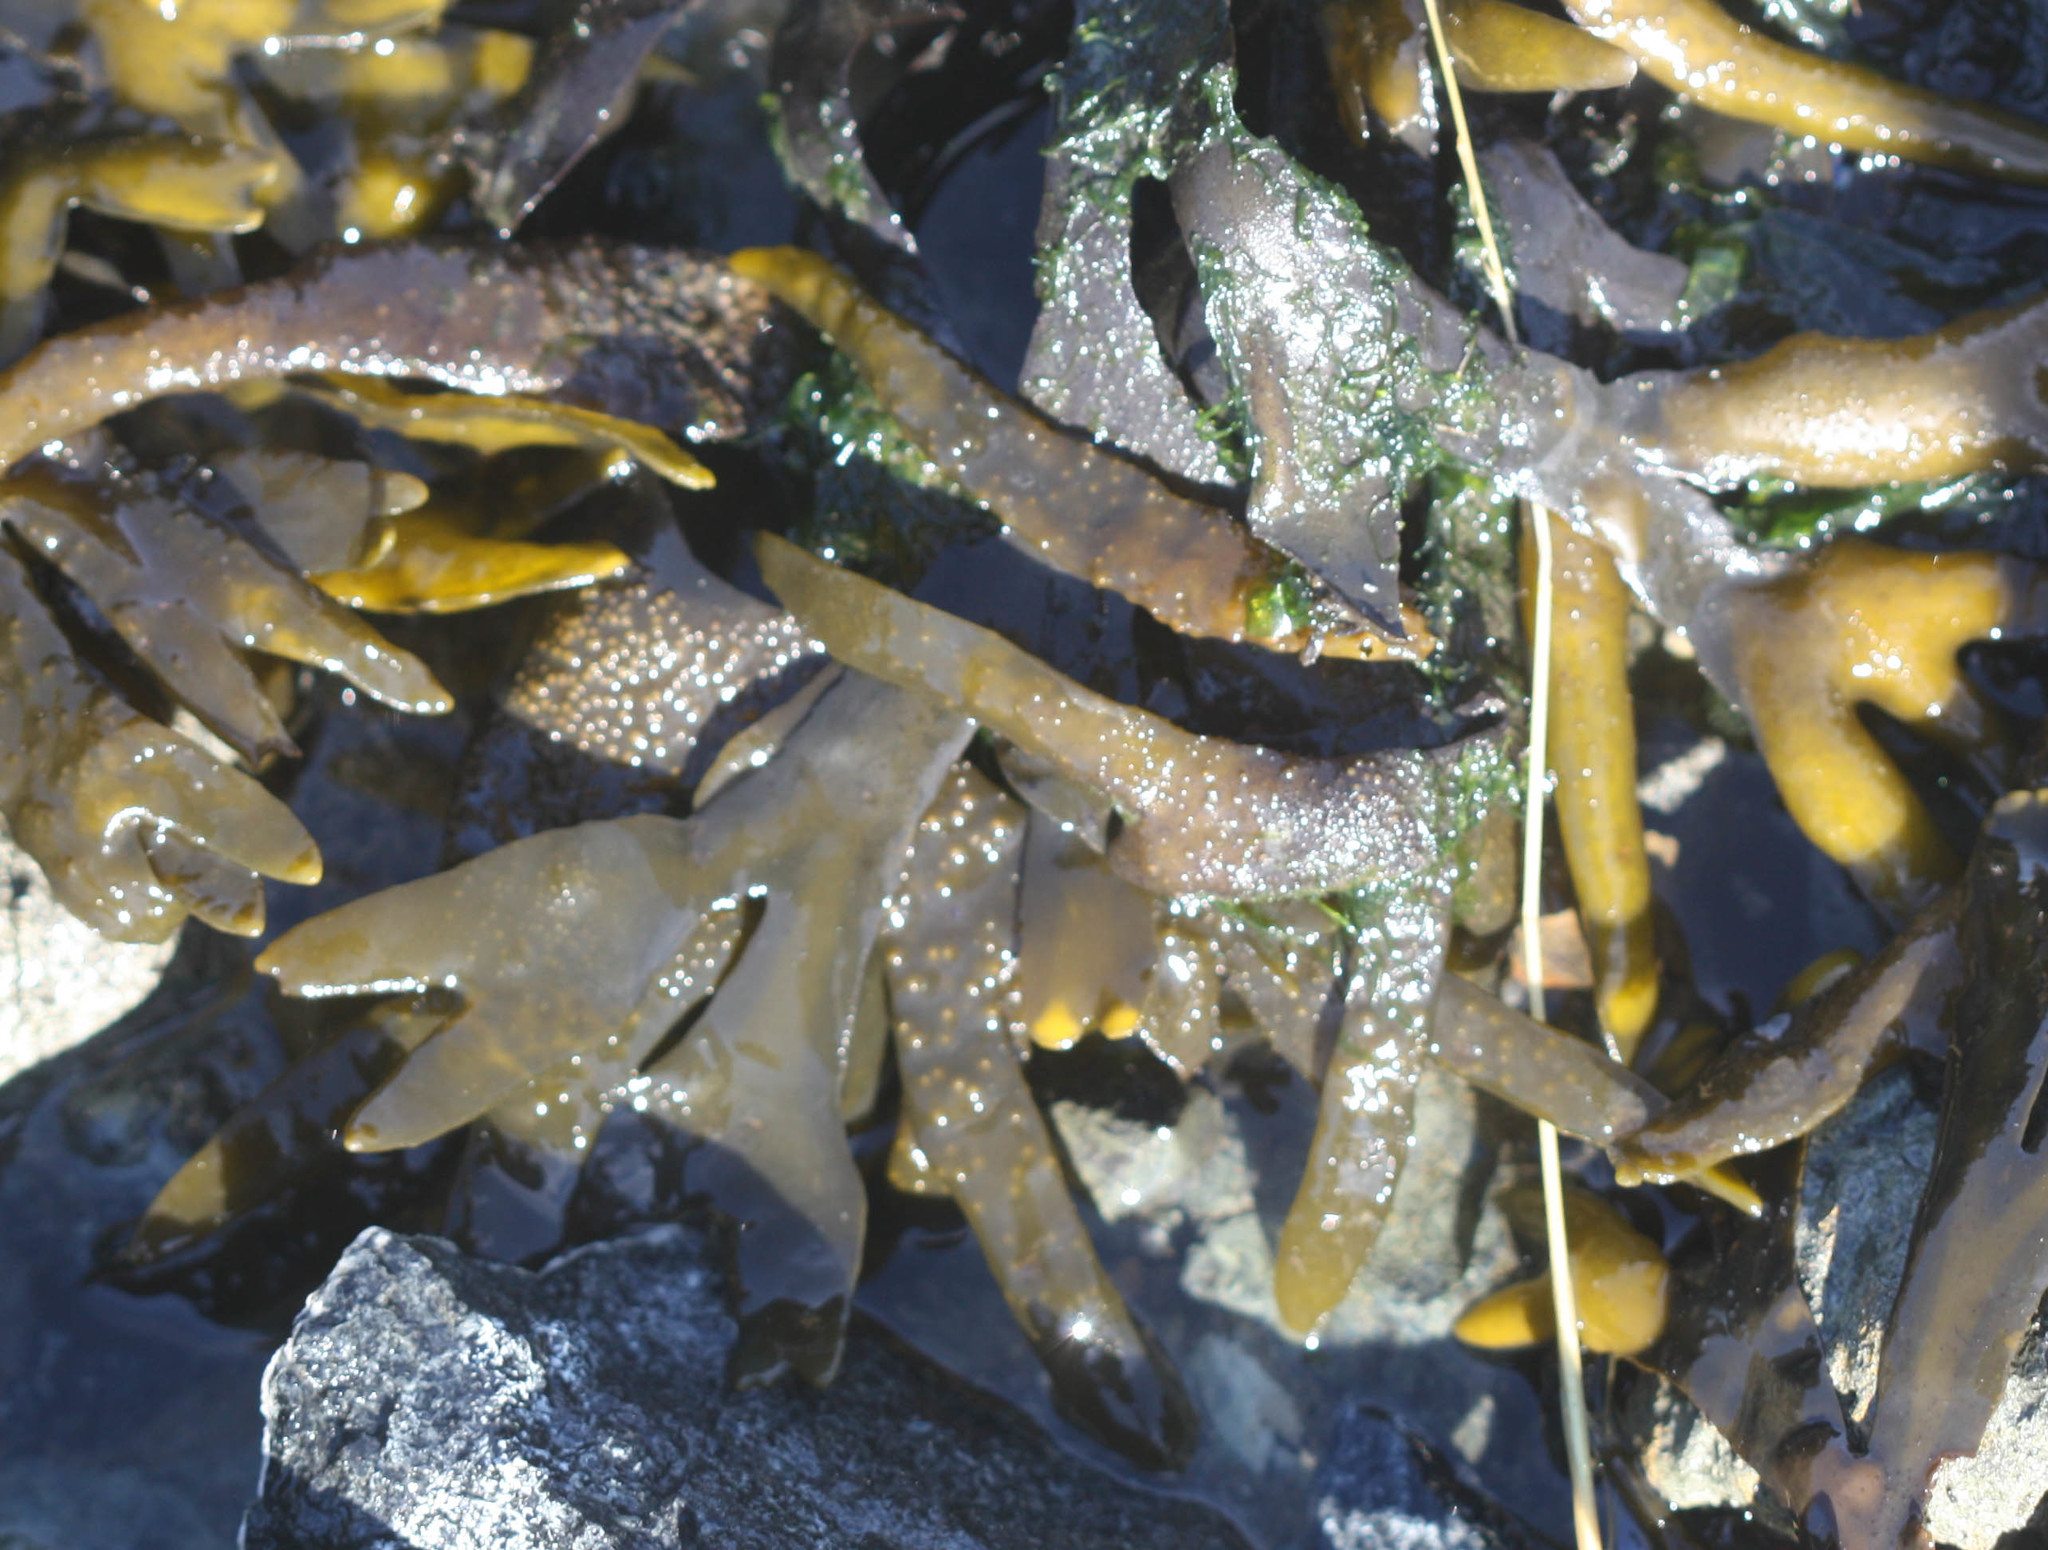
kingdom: Chromista
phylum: Ochrophyta
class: Phaeophyceae
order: Fucales
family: Fucaceae
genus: Fucus
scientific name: Fucus distichus
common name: Rockweed
